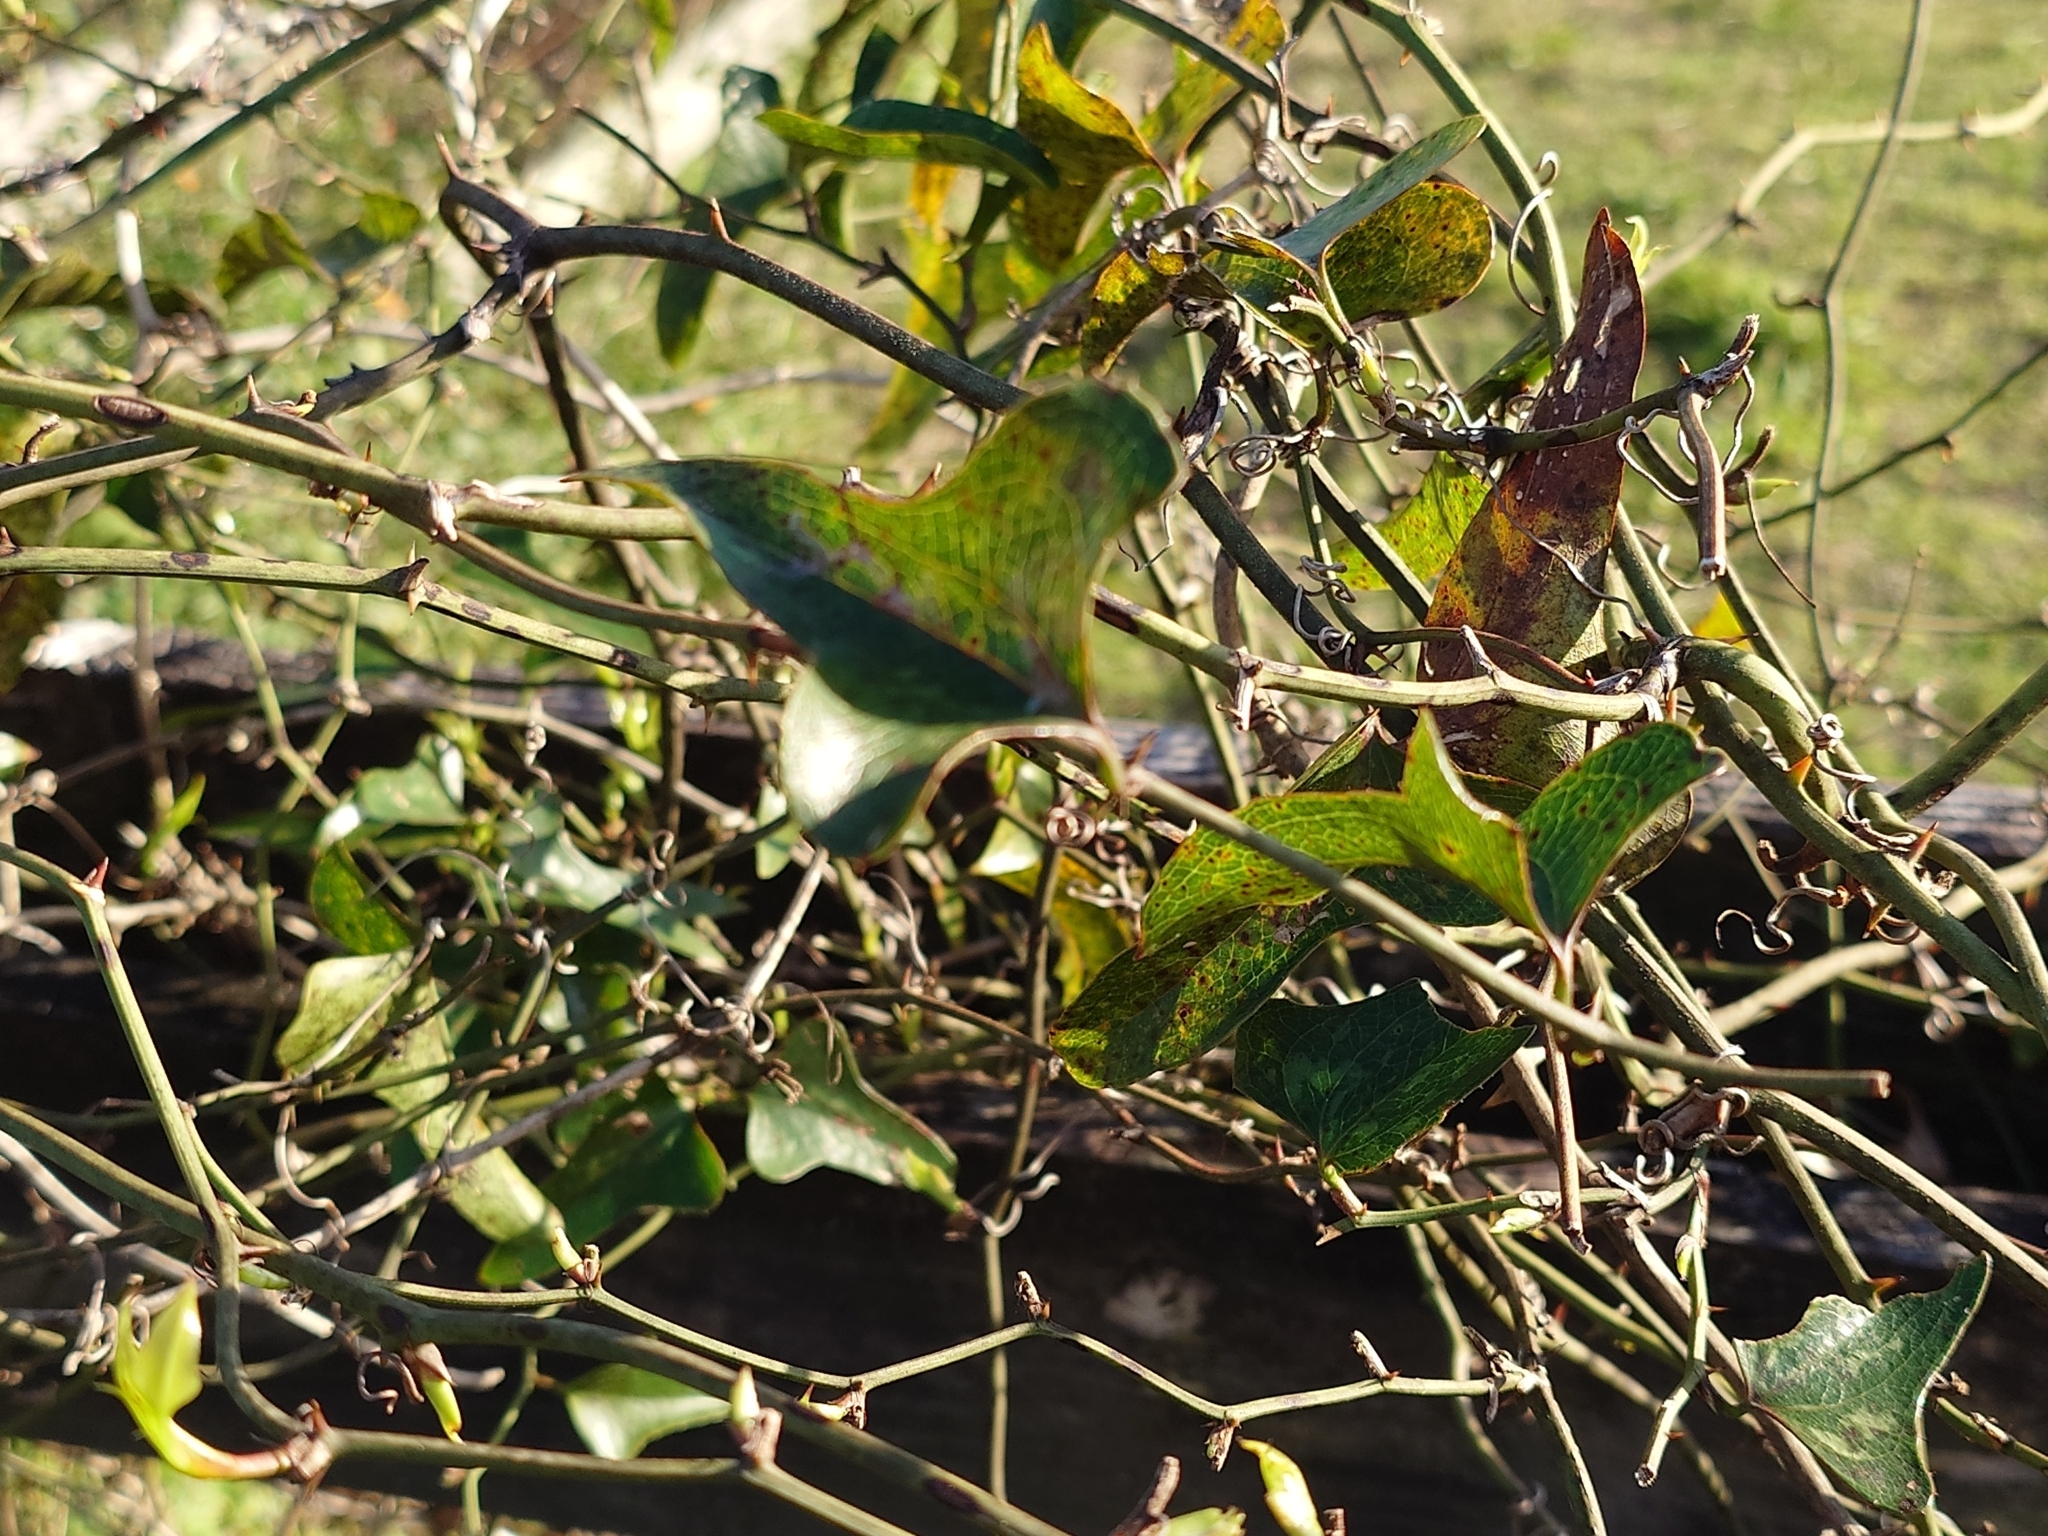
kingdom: Plantae
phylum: Tracheophyta
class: Liliopsida
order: Liliales
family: Smilacaceae
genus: Smilax
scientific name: Smilax bona-nox
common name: Catbrier
